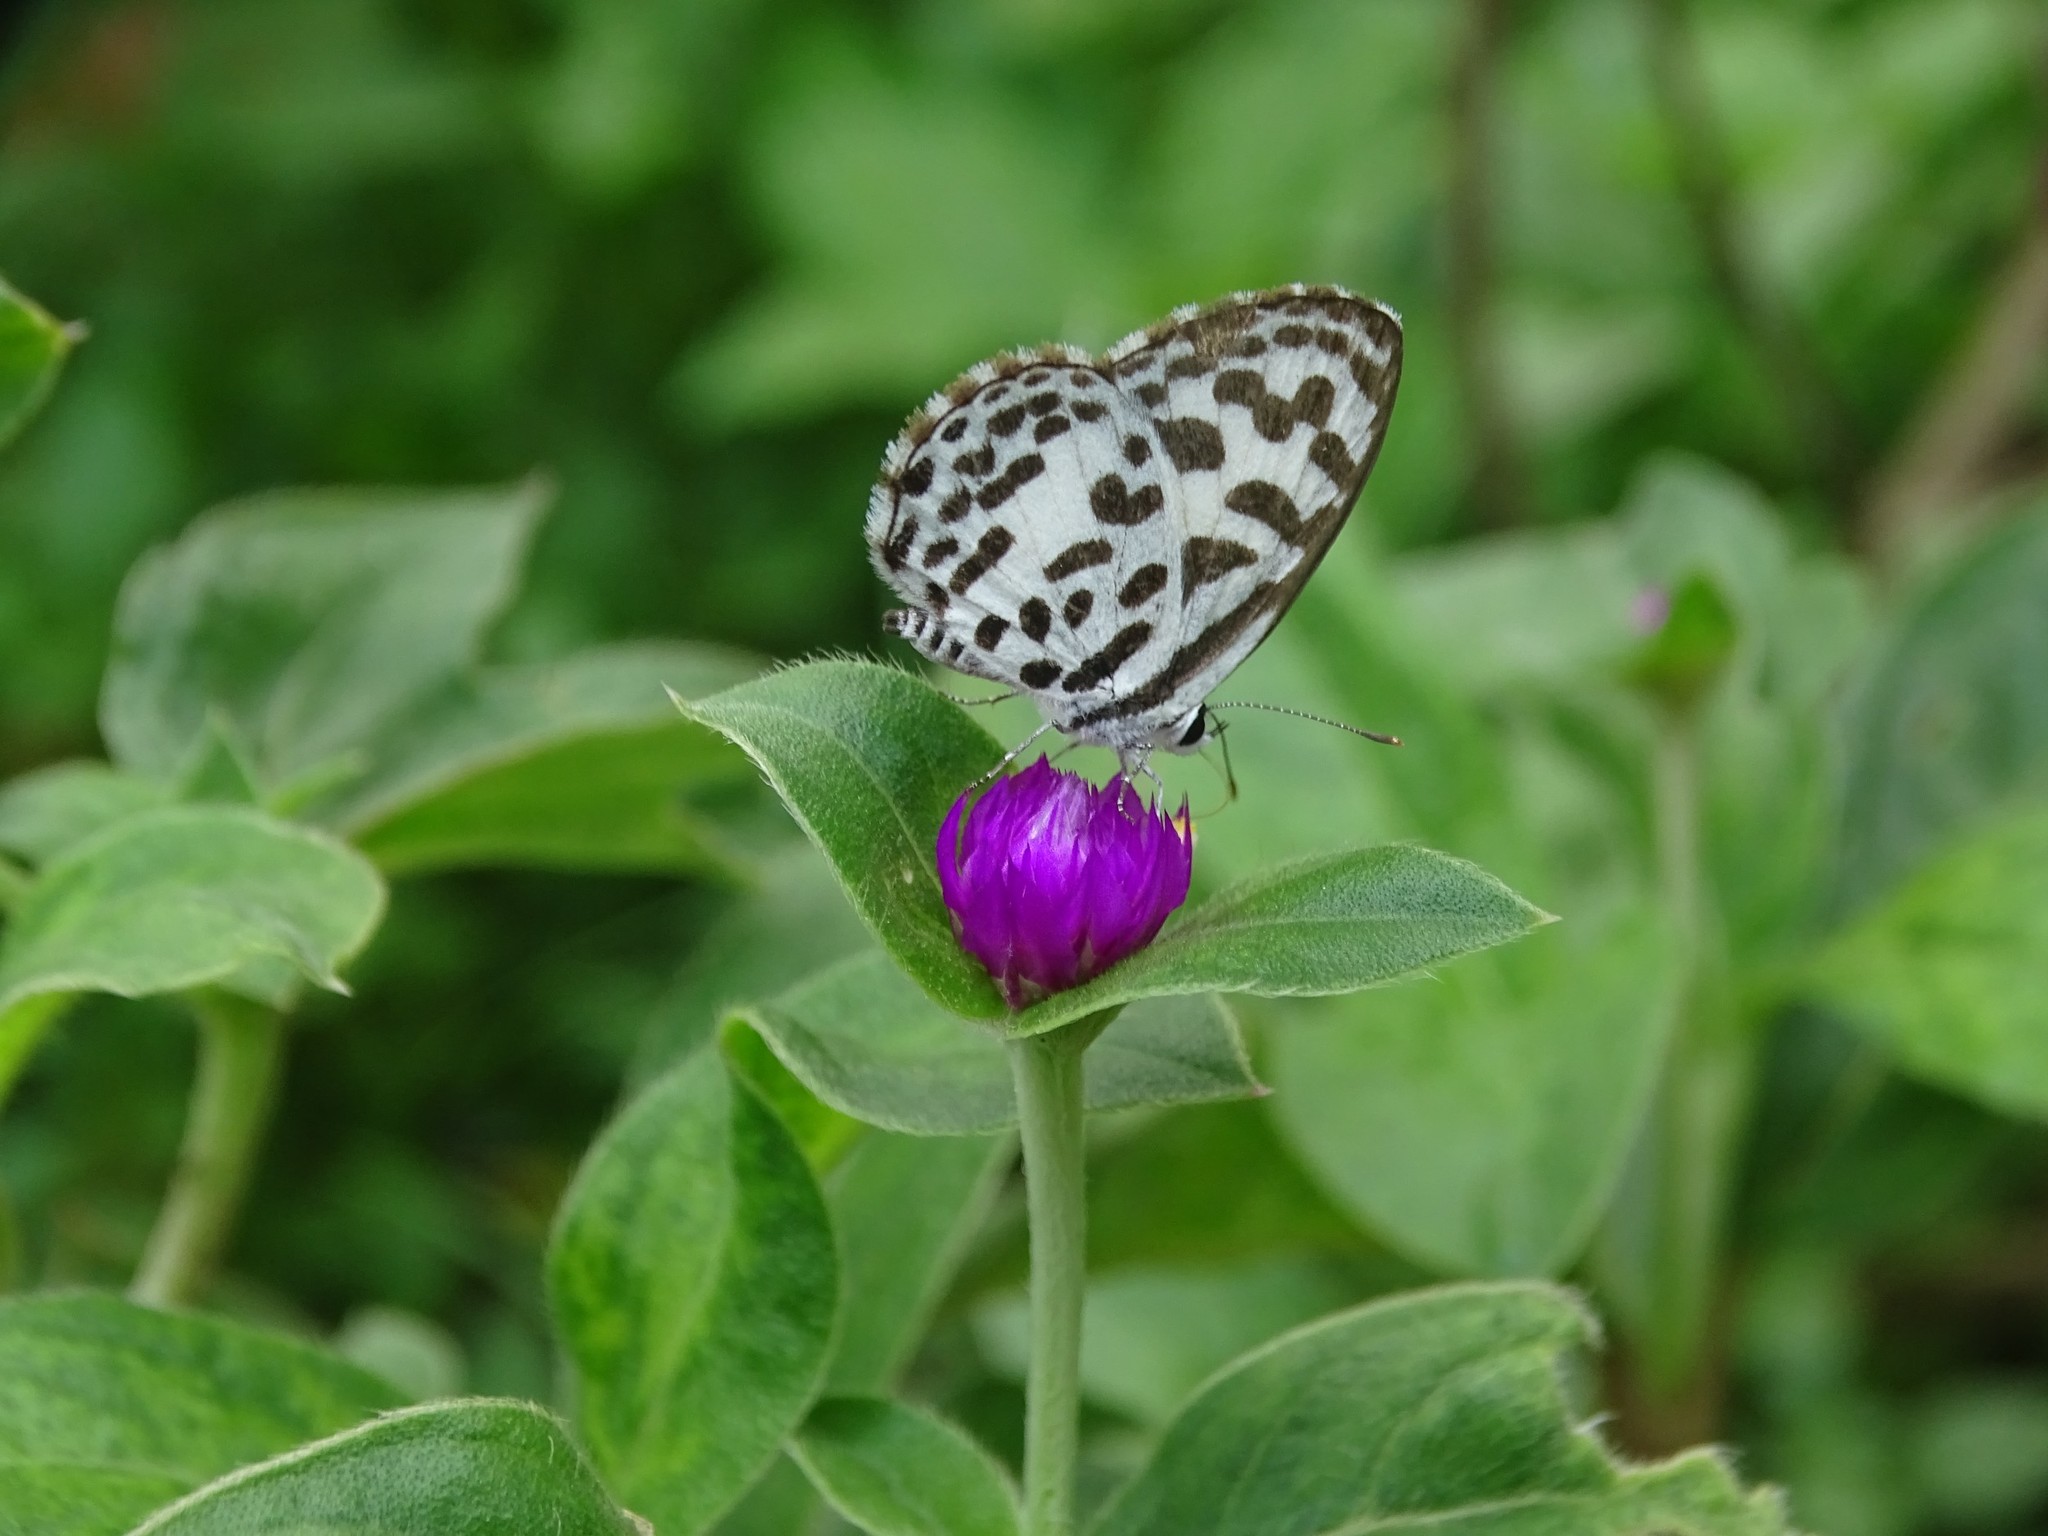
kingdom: Animalia
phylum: Arthropoda
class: Insecta
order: Lepidoptera
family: Lycaenidae
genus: Castalius
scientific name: Castalius rosimon
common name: Common pierrot
